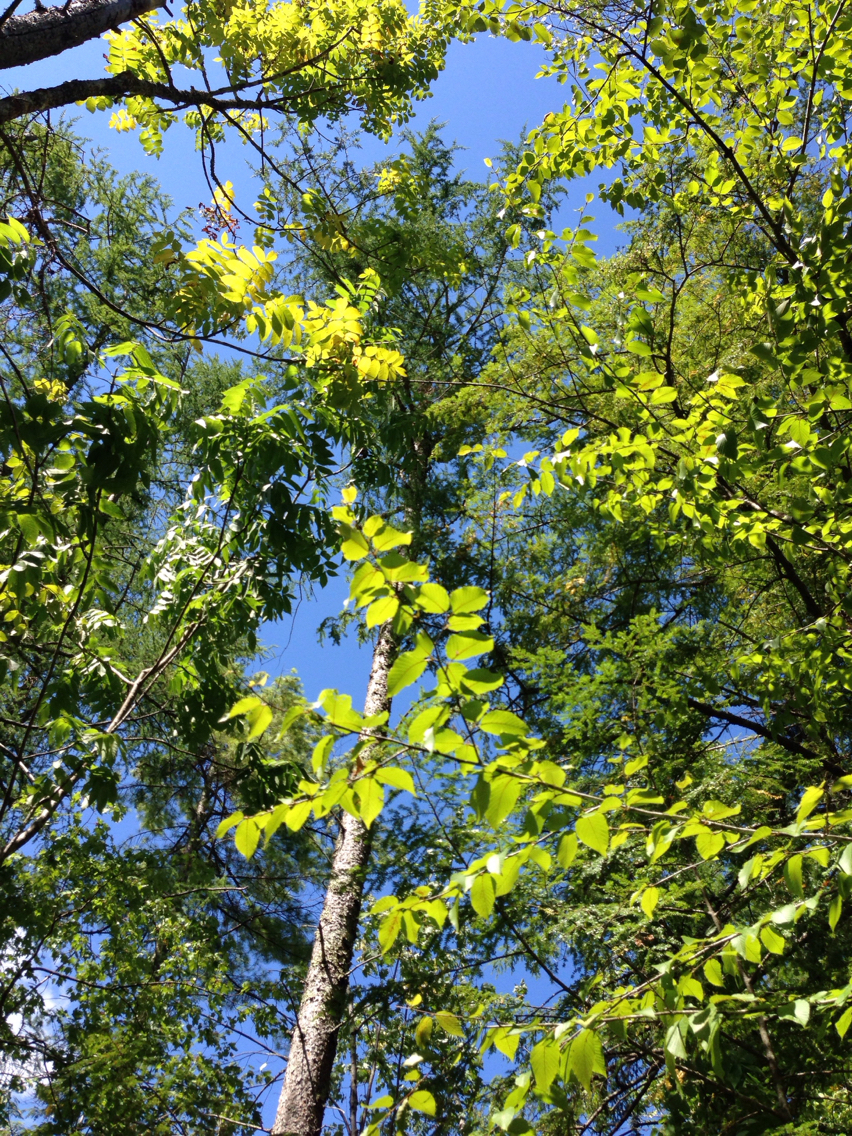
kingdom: Plantae
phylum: Tracheophyta
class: Pinopsida
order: Pinales
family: Pinaceae
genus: Larix
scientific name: Larix laricina
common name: American larch
